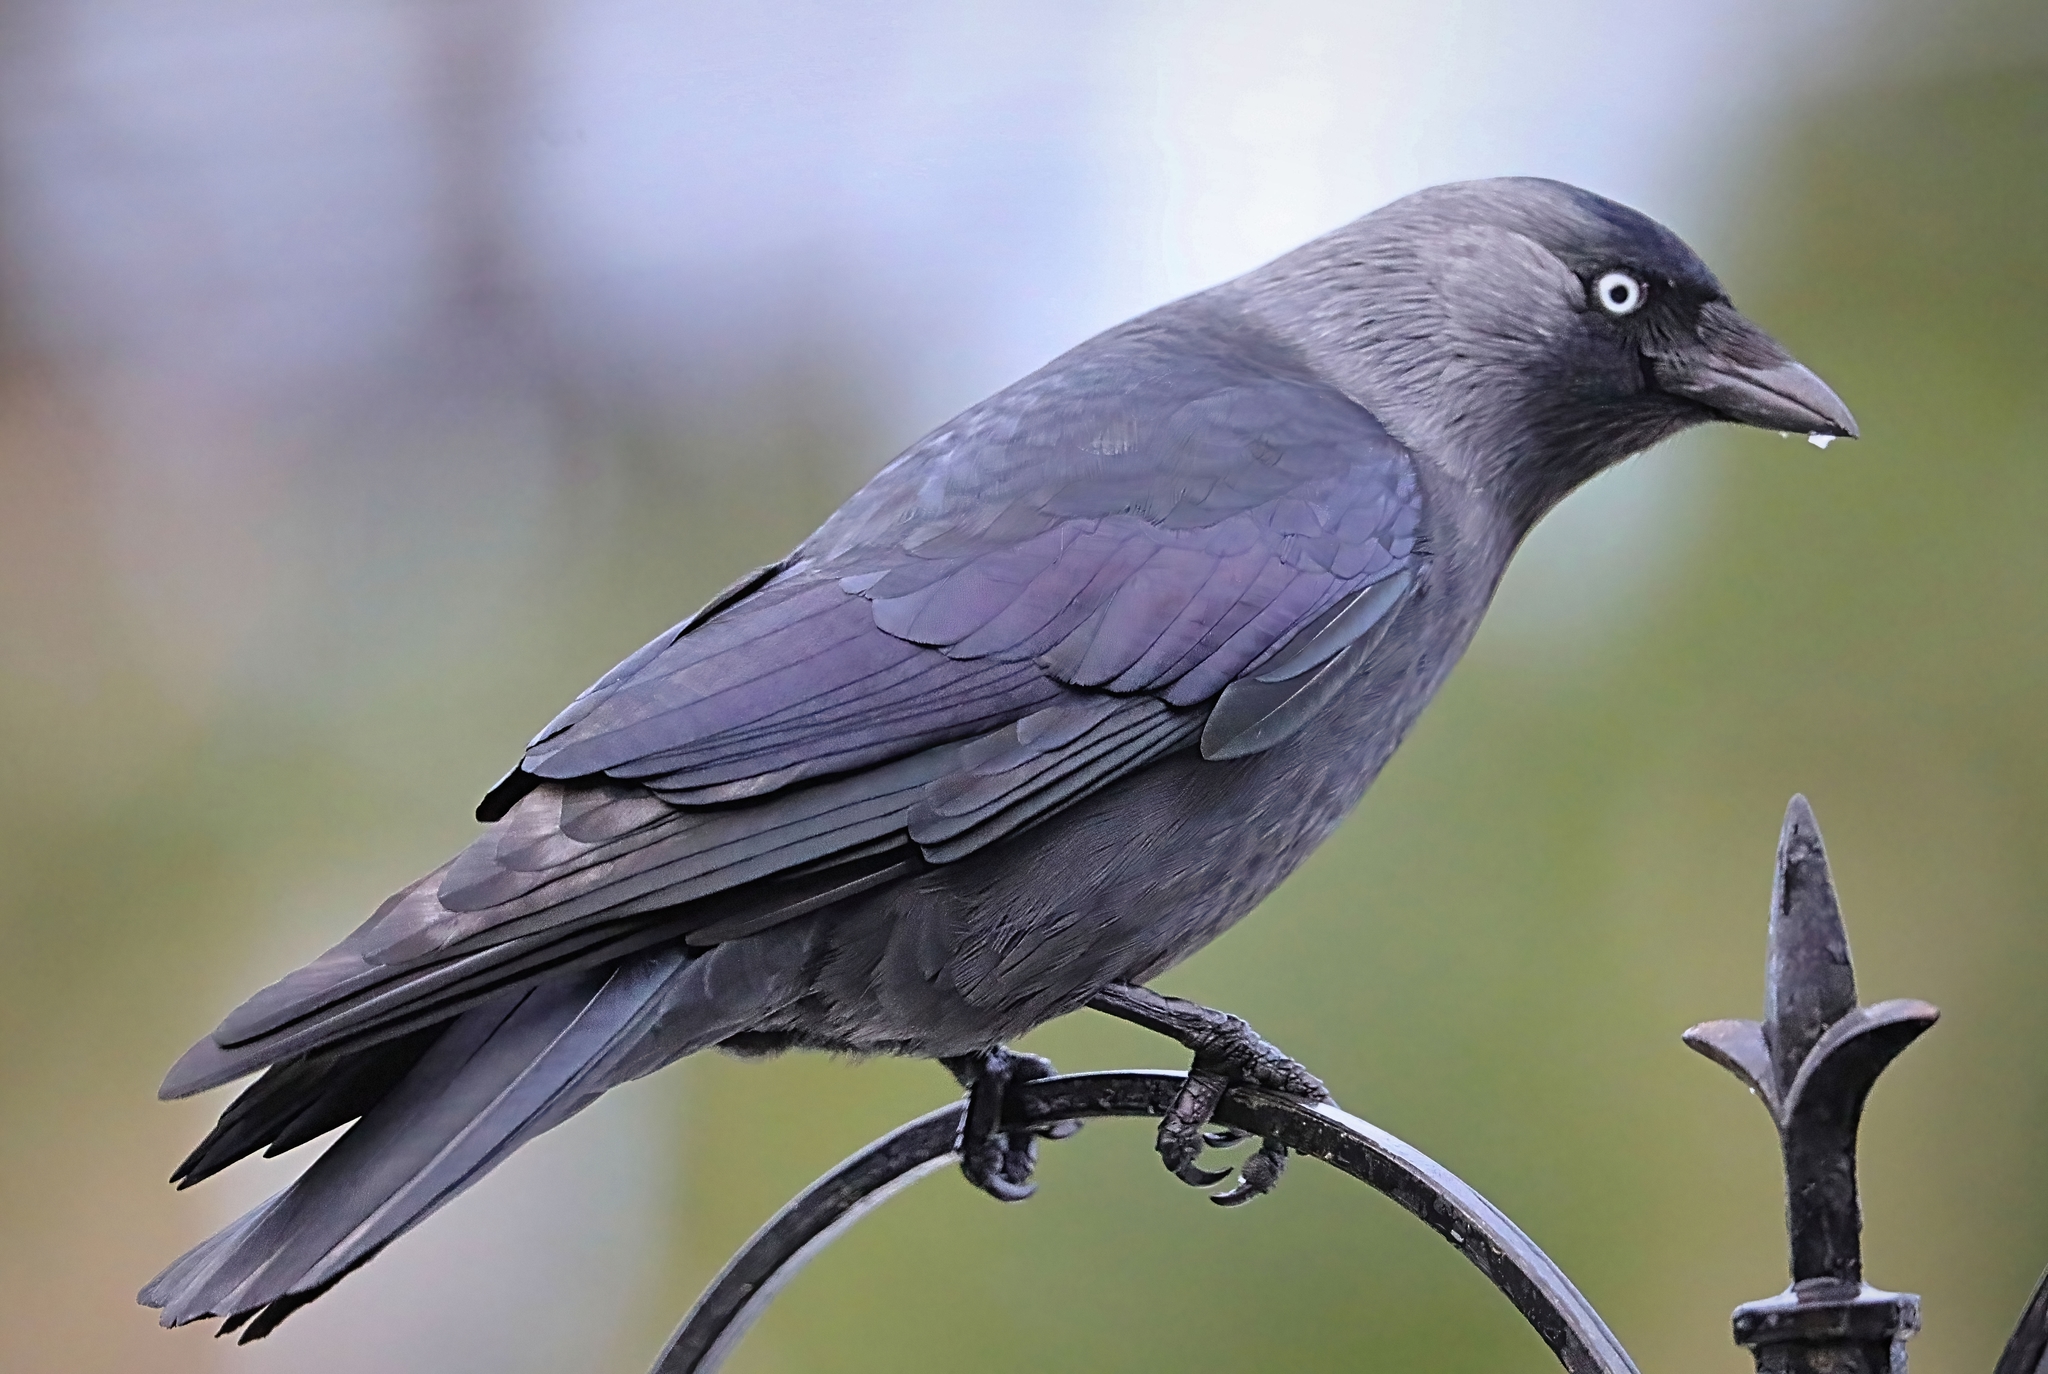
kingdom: Animalia
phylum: Chordata
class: Aves
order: Passeriformes
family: Corvidae
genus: Coloeus
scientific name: Coloeus monedula
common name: Western jackdaw
